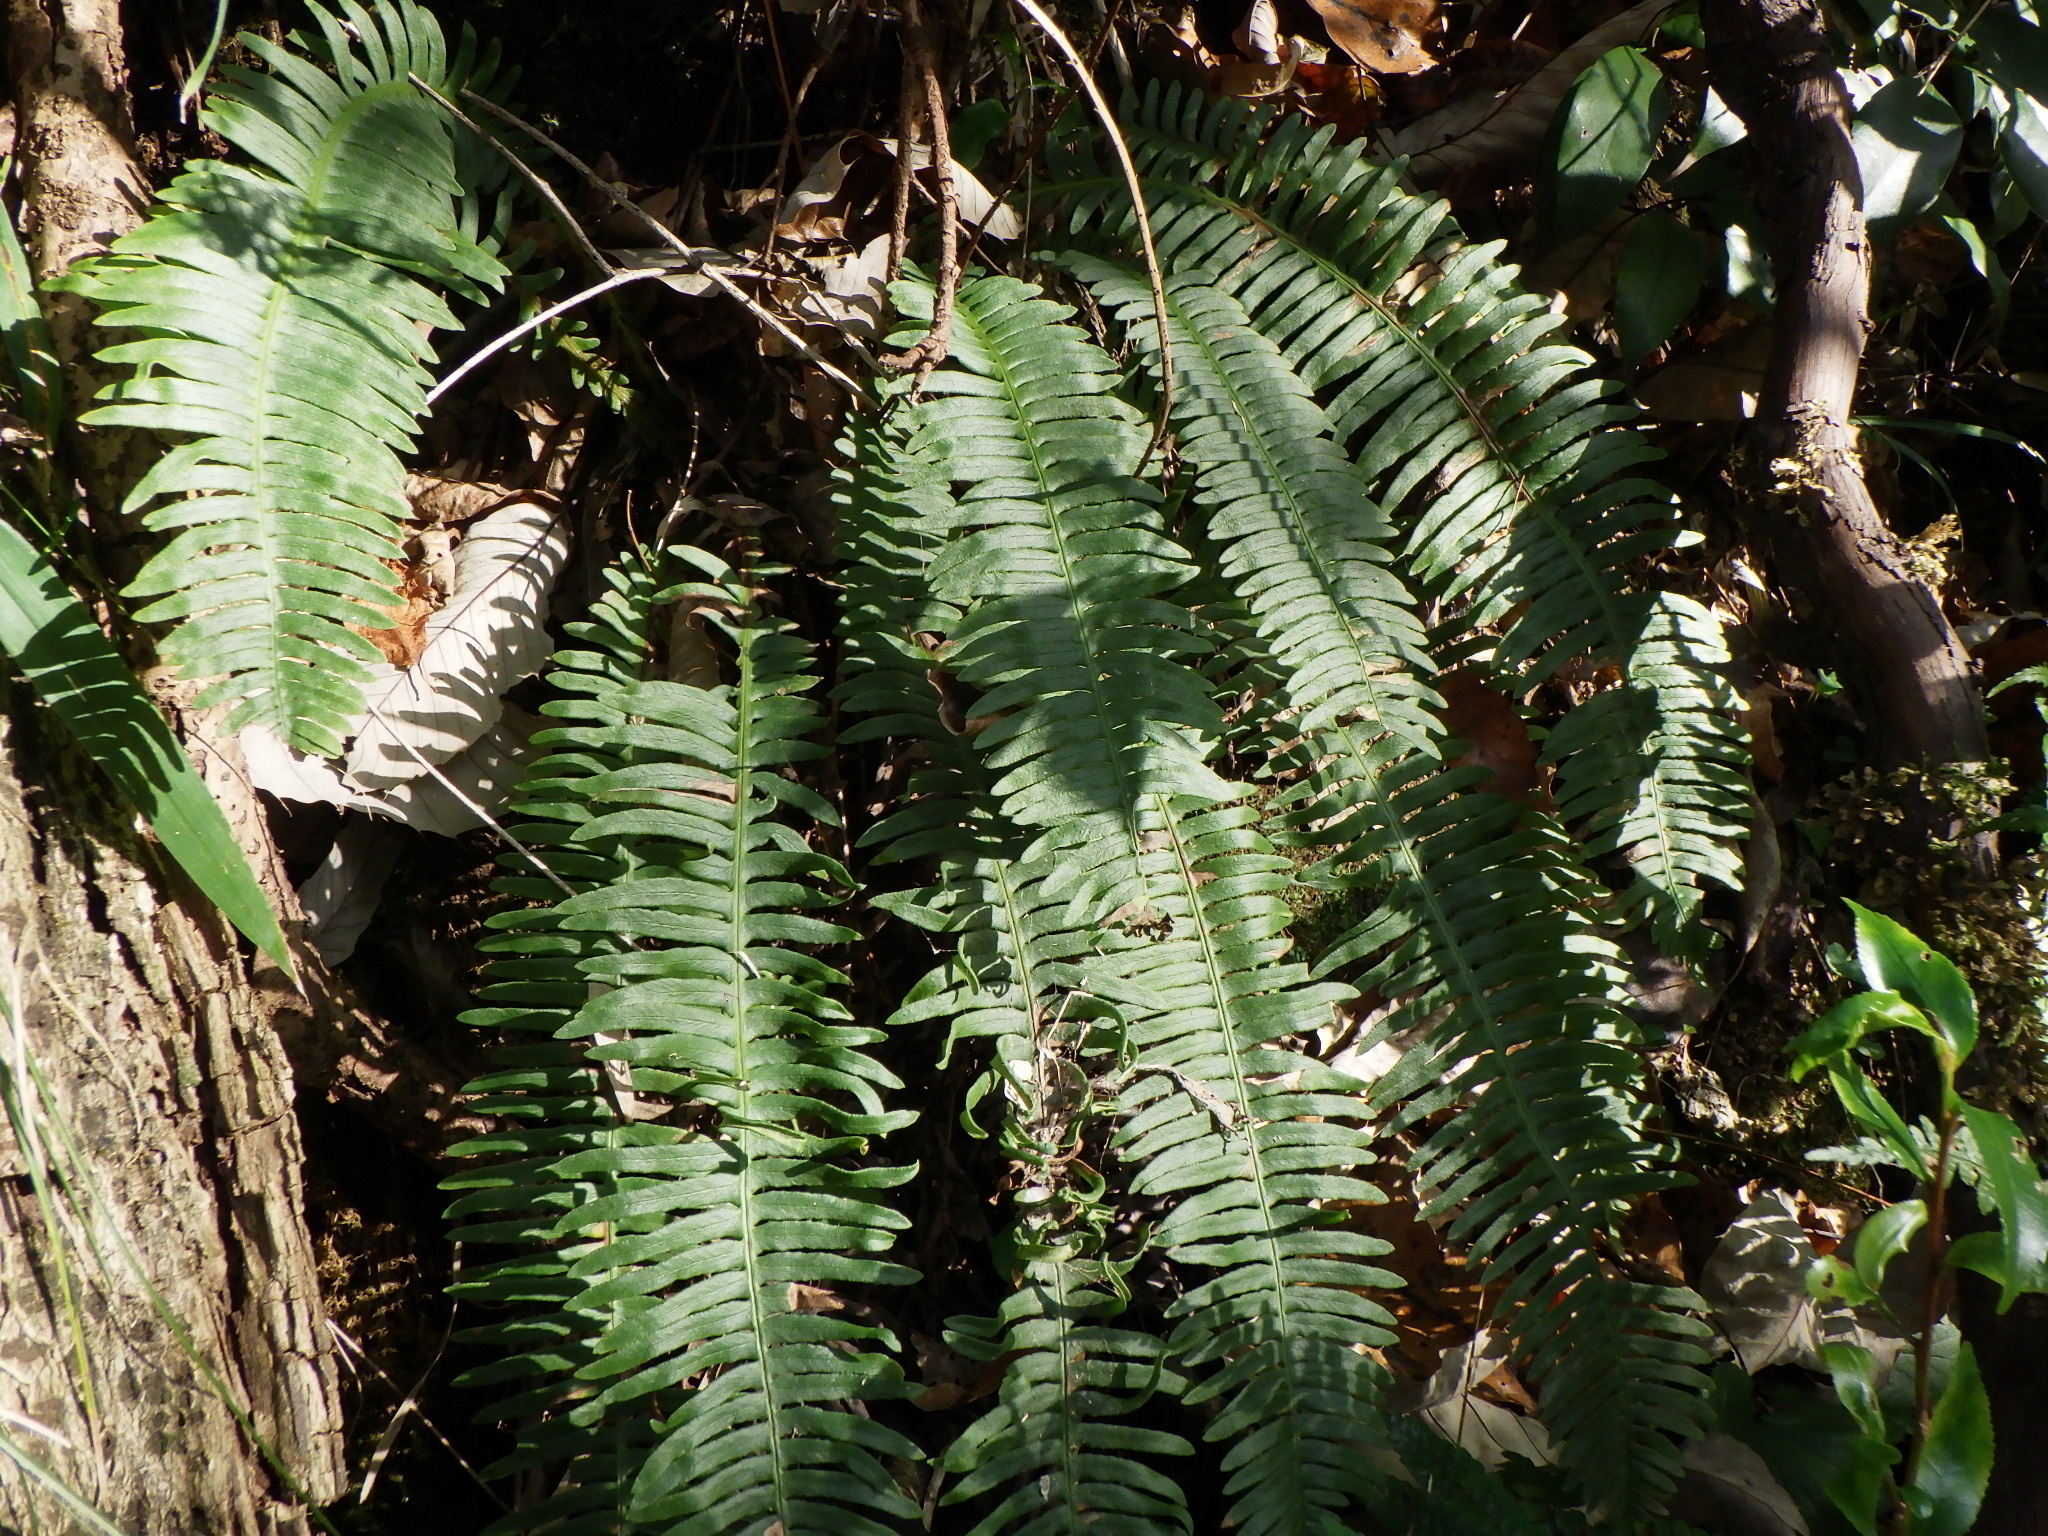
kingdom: Plantae
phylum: Tracheophyta
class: Polypodiopsida
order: Polypodiales
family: Blechnaceae
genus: Spicantopsis
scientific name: Spicantopsis niponica
